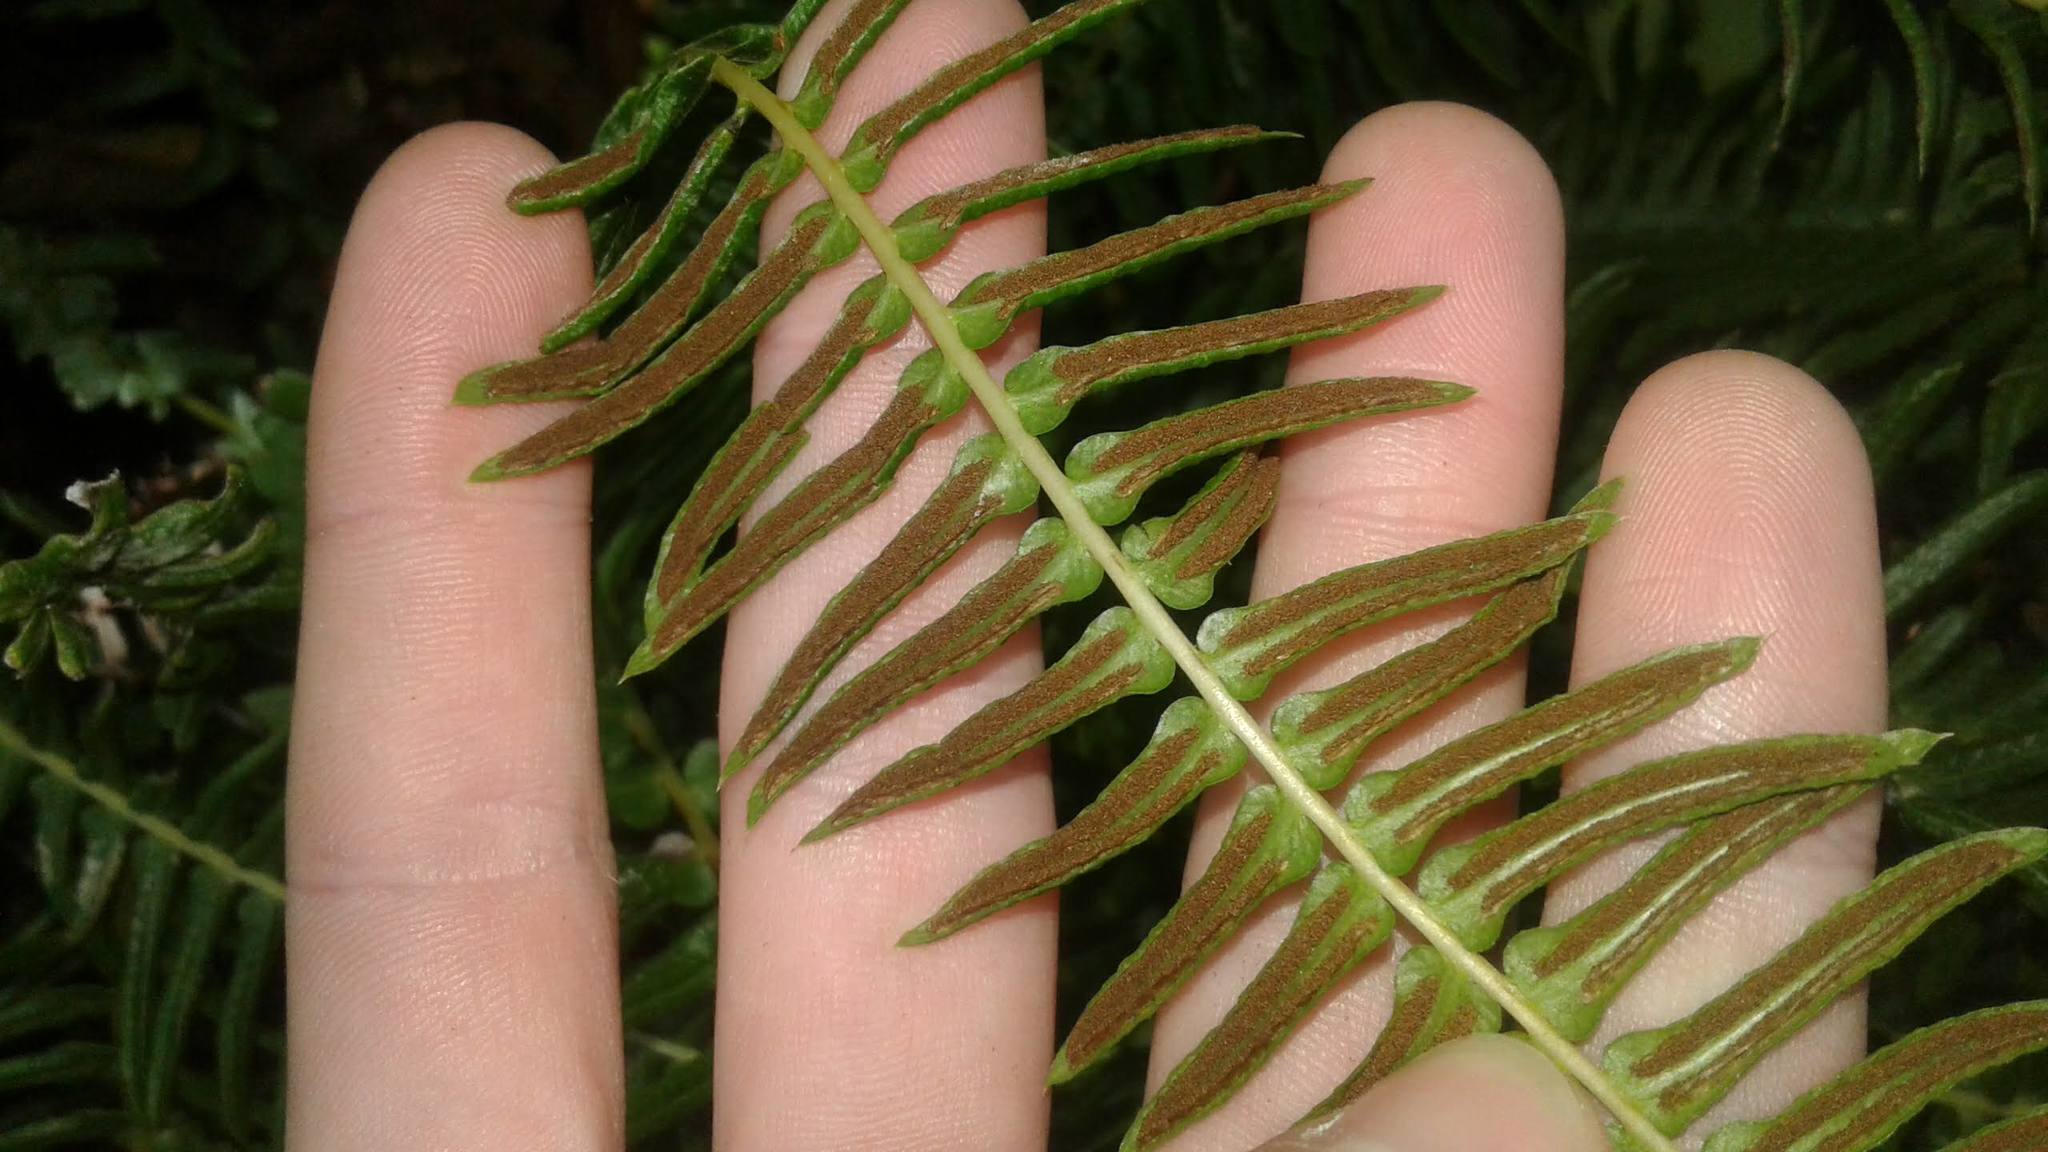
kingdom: Plantae
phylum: Tracheophyta
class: Polypodiopsida
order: Polypodiales
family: Blechnaceae
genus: Blechnum
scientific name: Blechnum australe
